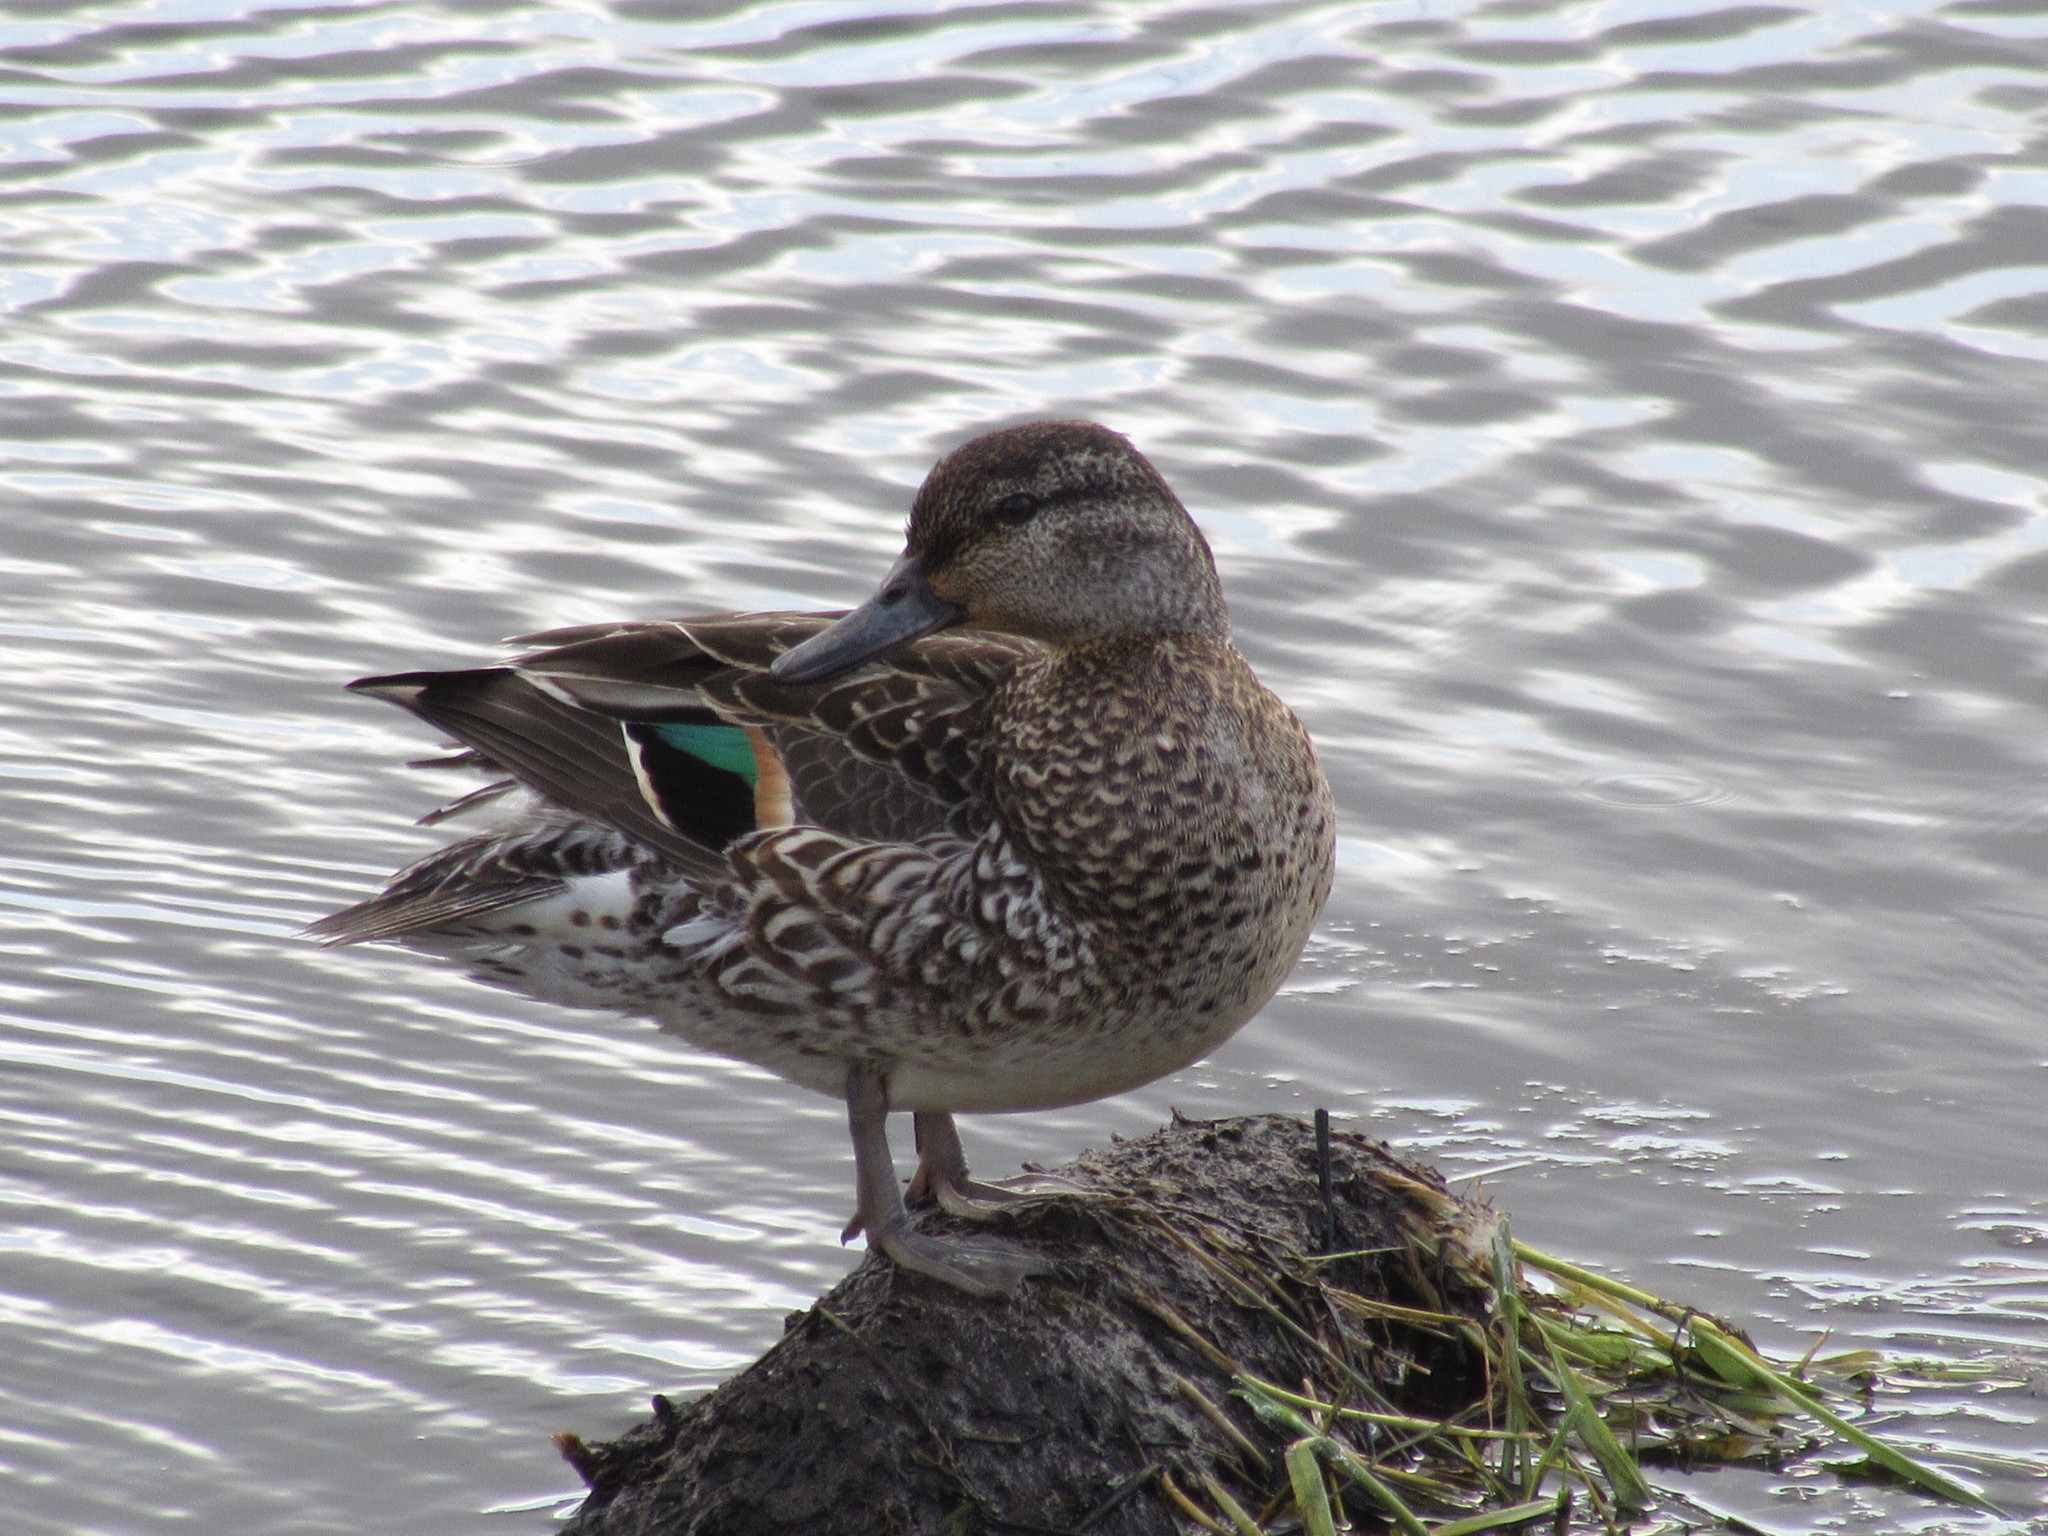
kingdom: Animalia
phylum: Chordata
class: Aves
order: Anseriformes
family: Anatidae
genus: Anas
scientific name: Anas crecca
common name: Eurasian teal
